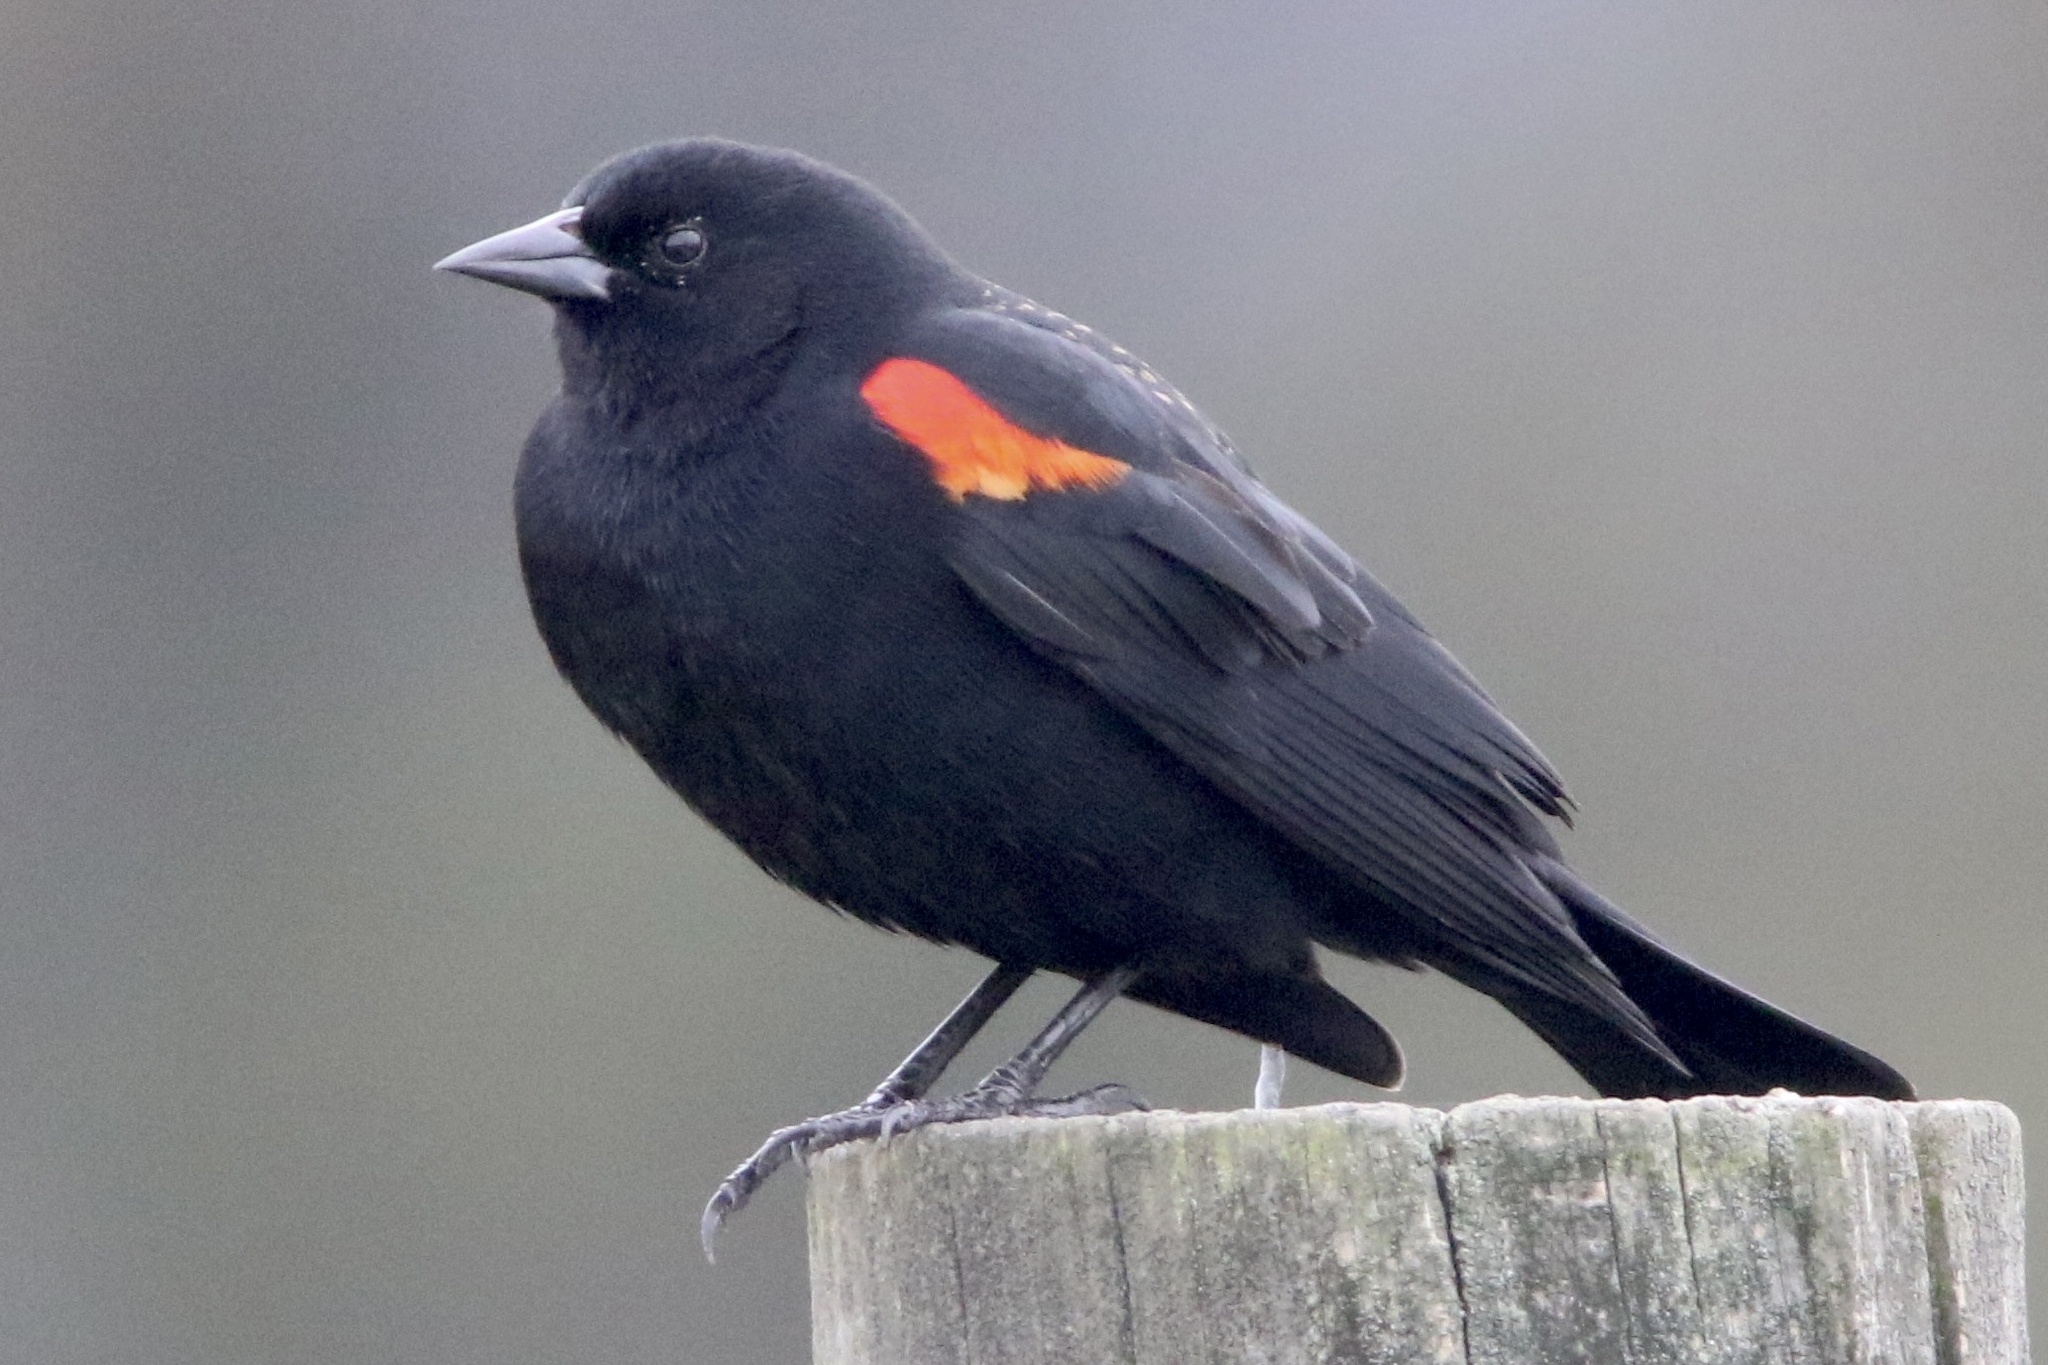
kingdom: Animalia
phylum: Chordata
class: Aves
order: Passeriformes
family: Icteridae
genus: Agelaius
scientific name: Agelaius phoeniceus
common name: Red-winged blackbird
